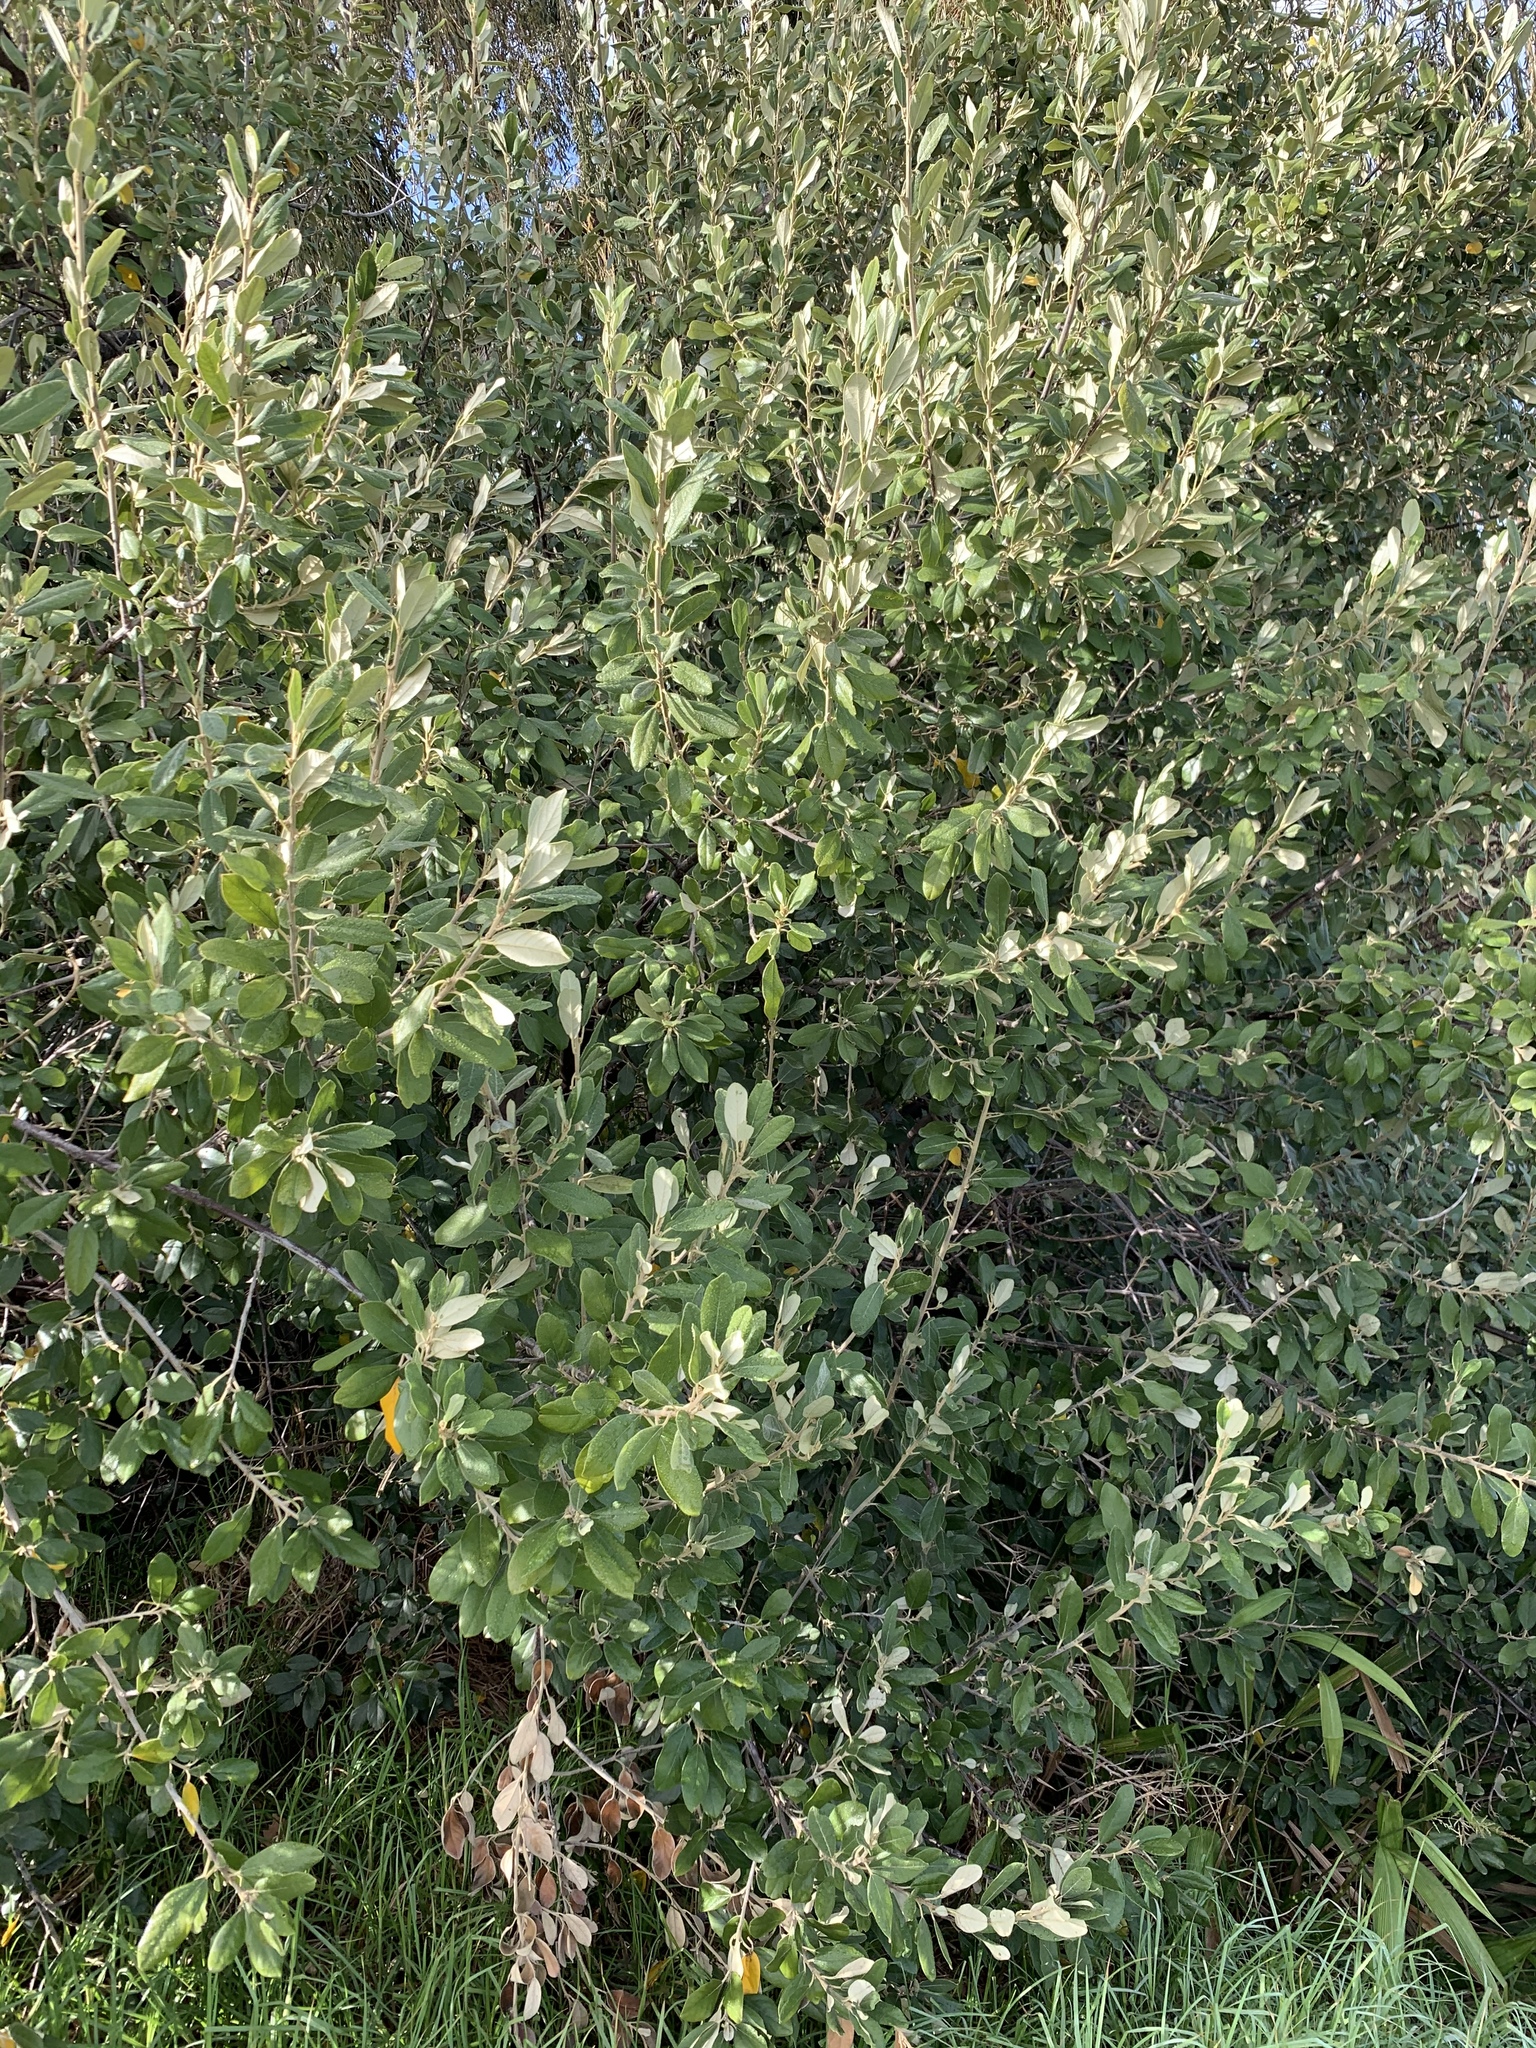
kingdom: Plantae
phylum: Tracheophyta
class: Magnoliopsida
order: Malpighiales
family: Achariaceae
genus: Kiggelaria
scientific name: Kiggelaria africana
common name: Wild peach
